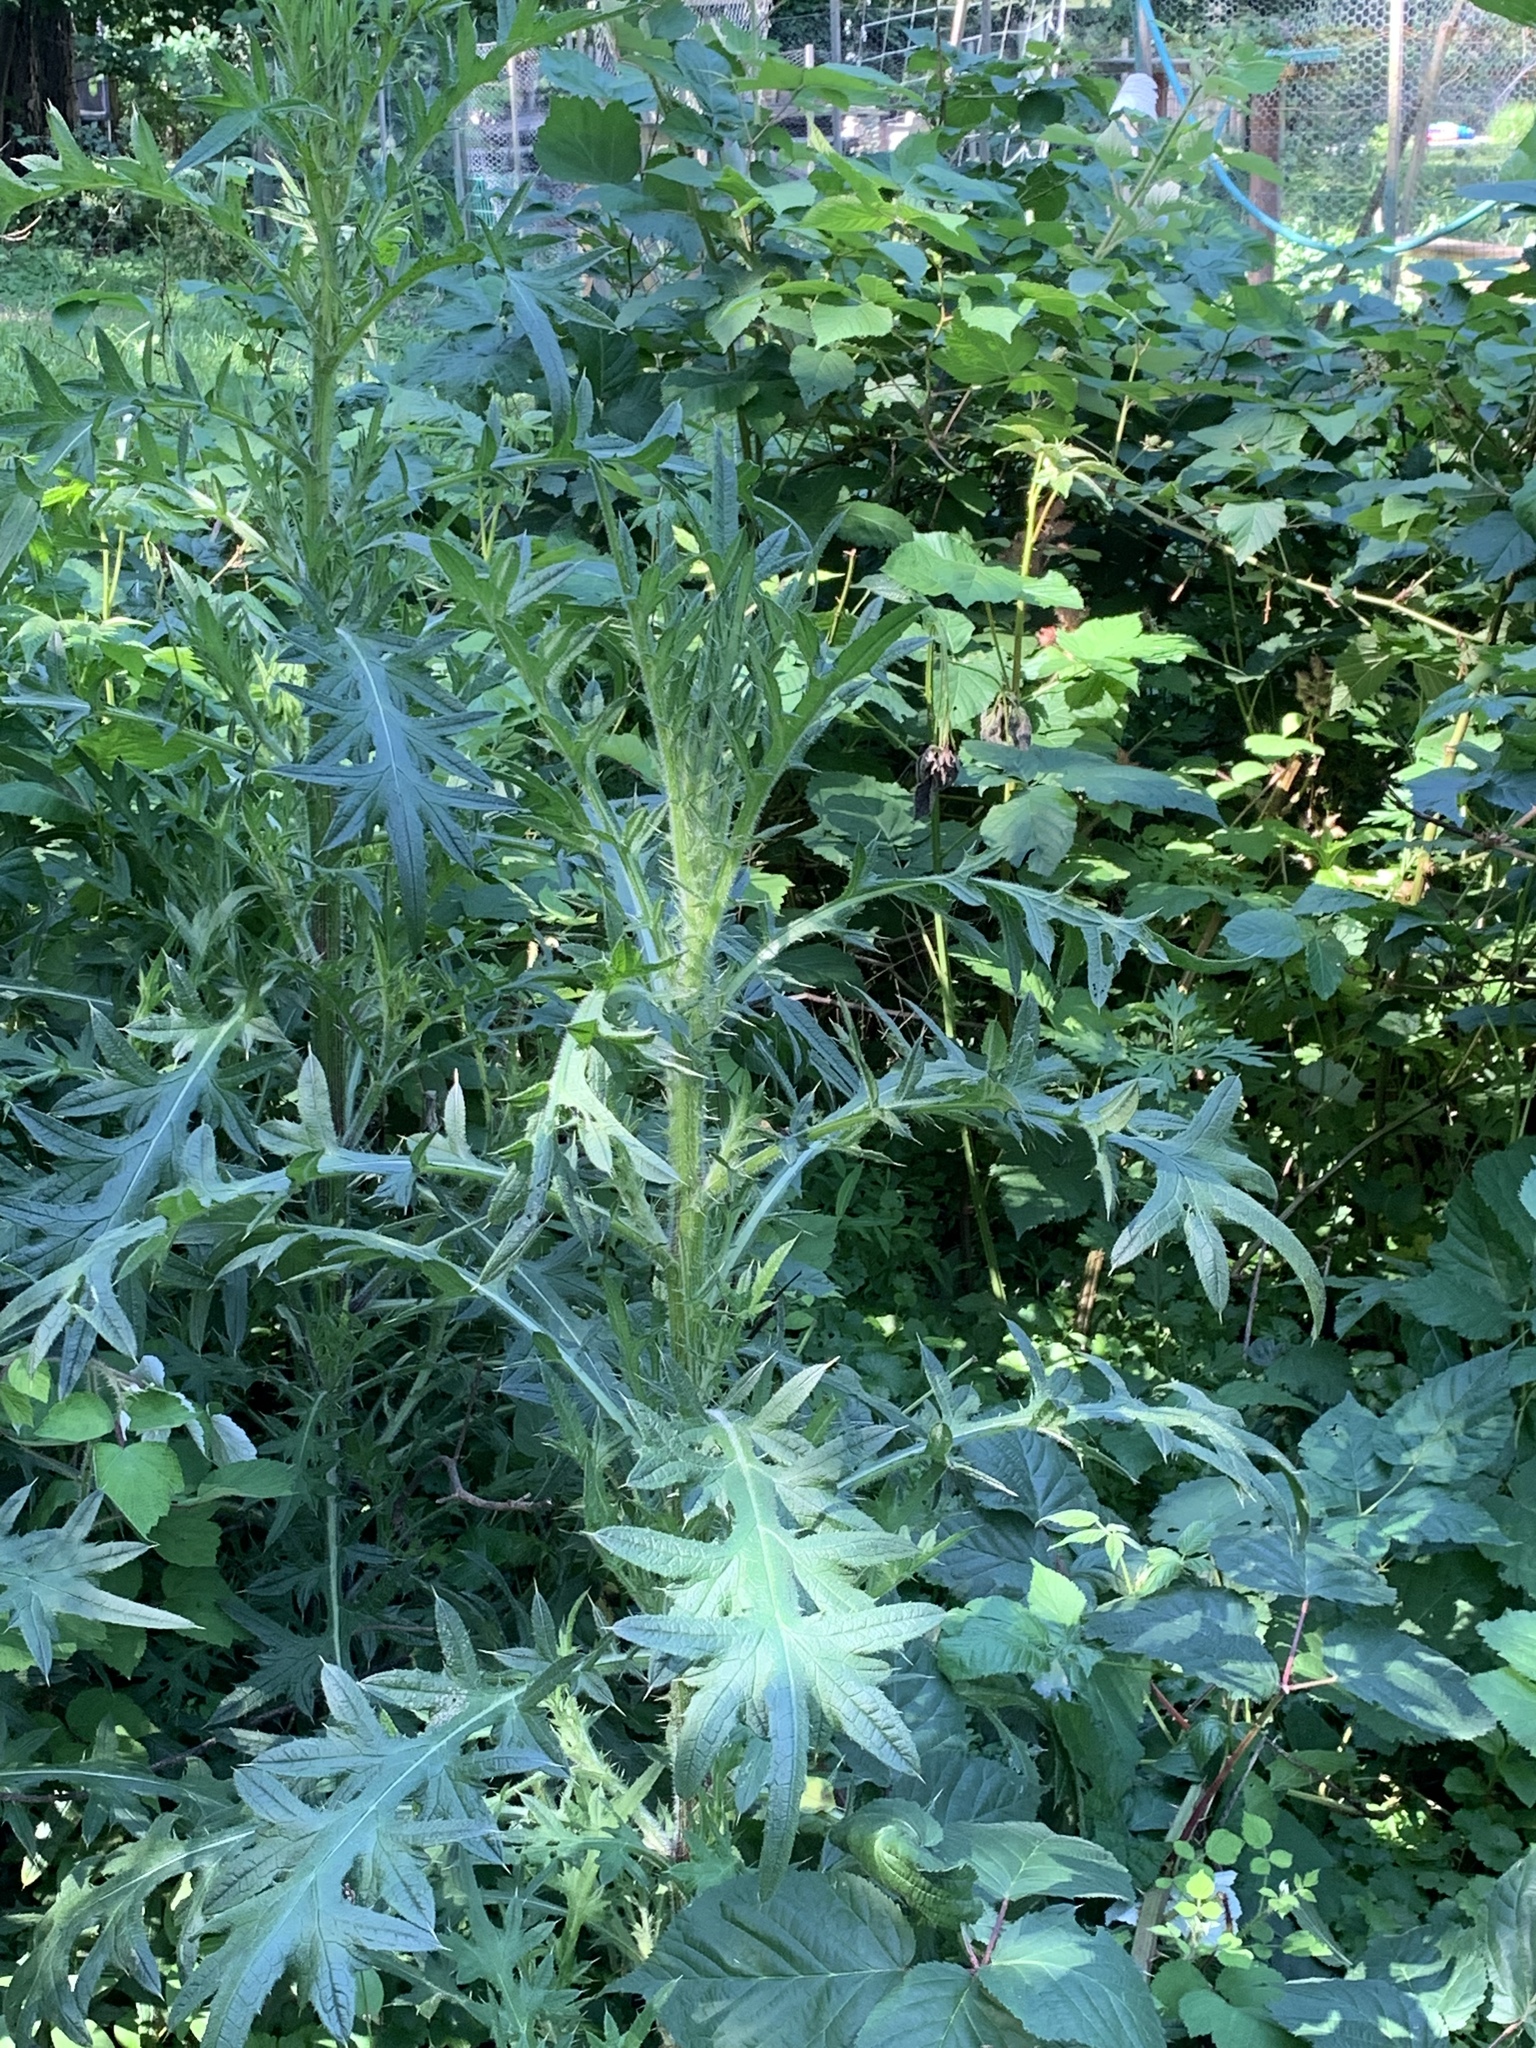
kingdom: Plantae
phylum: Tracheophyta
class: Magnoliopsida
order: Asterales
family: Asteraceae
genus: Cirsium
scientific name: Cirsium vulgare
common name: Bull thistle
